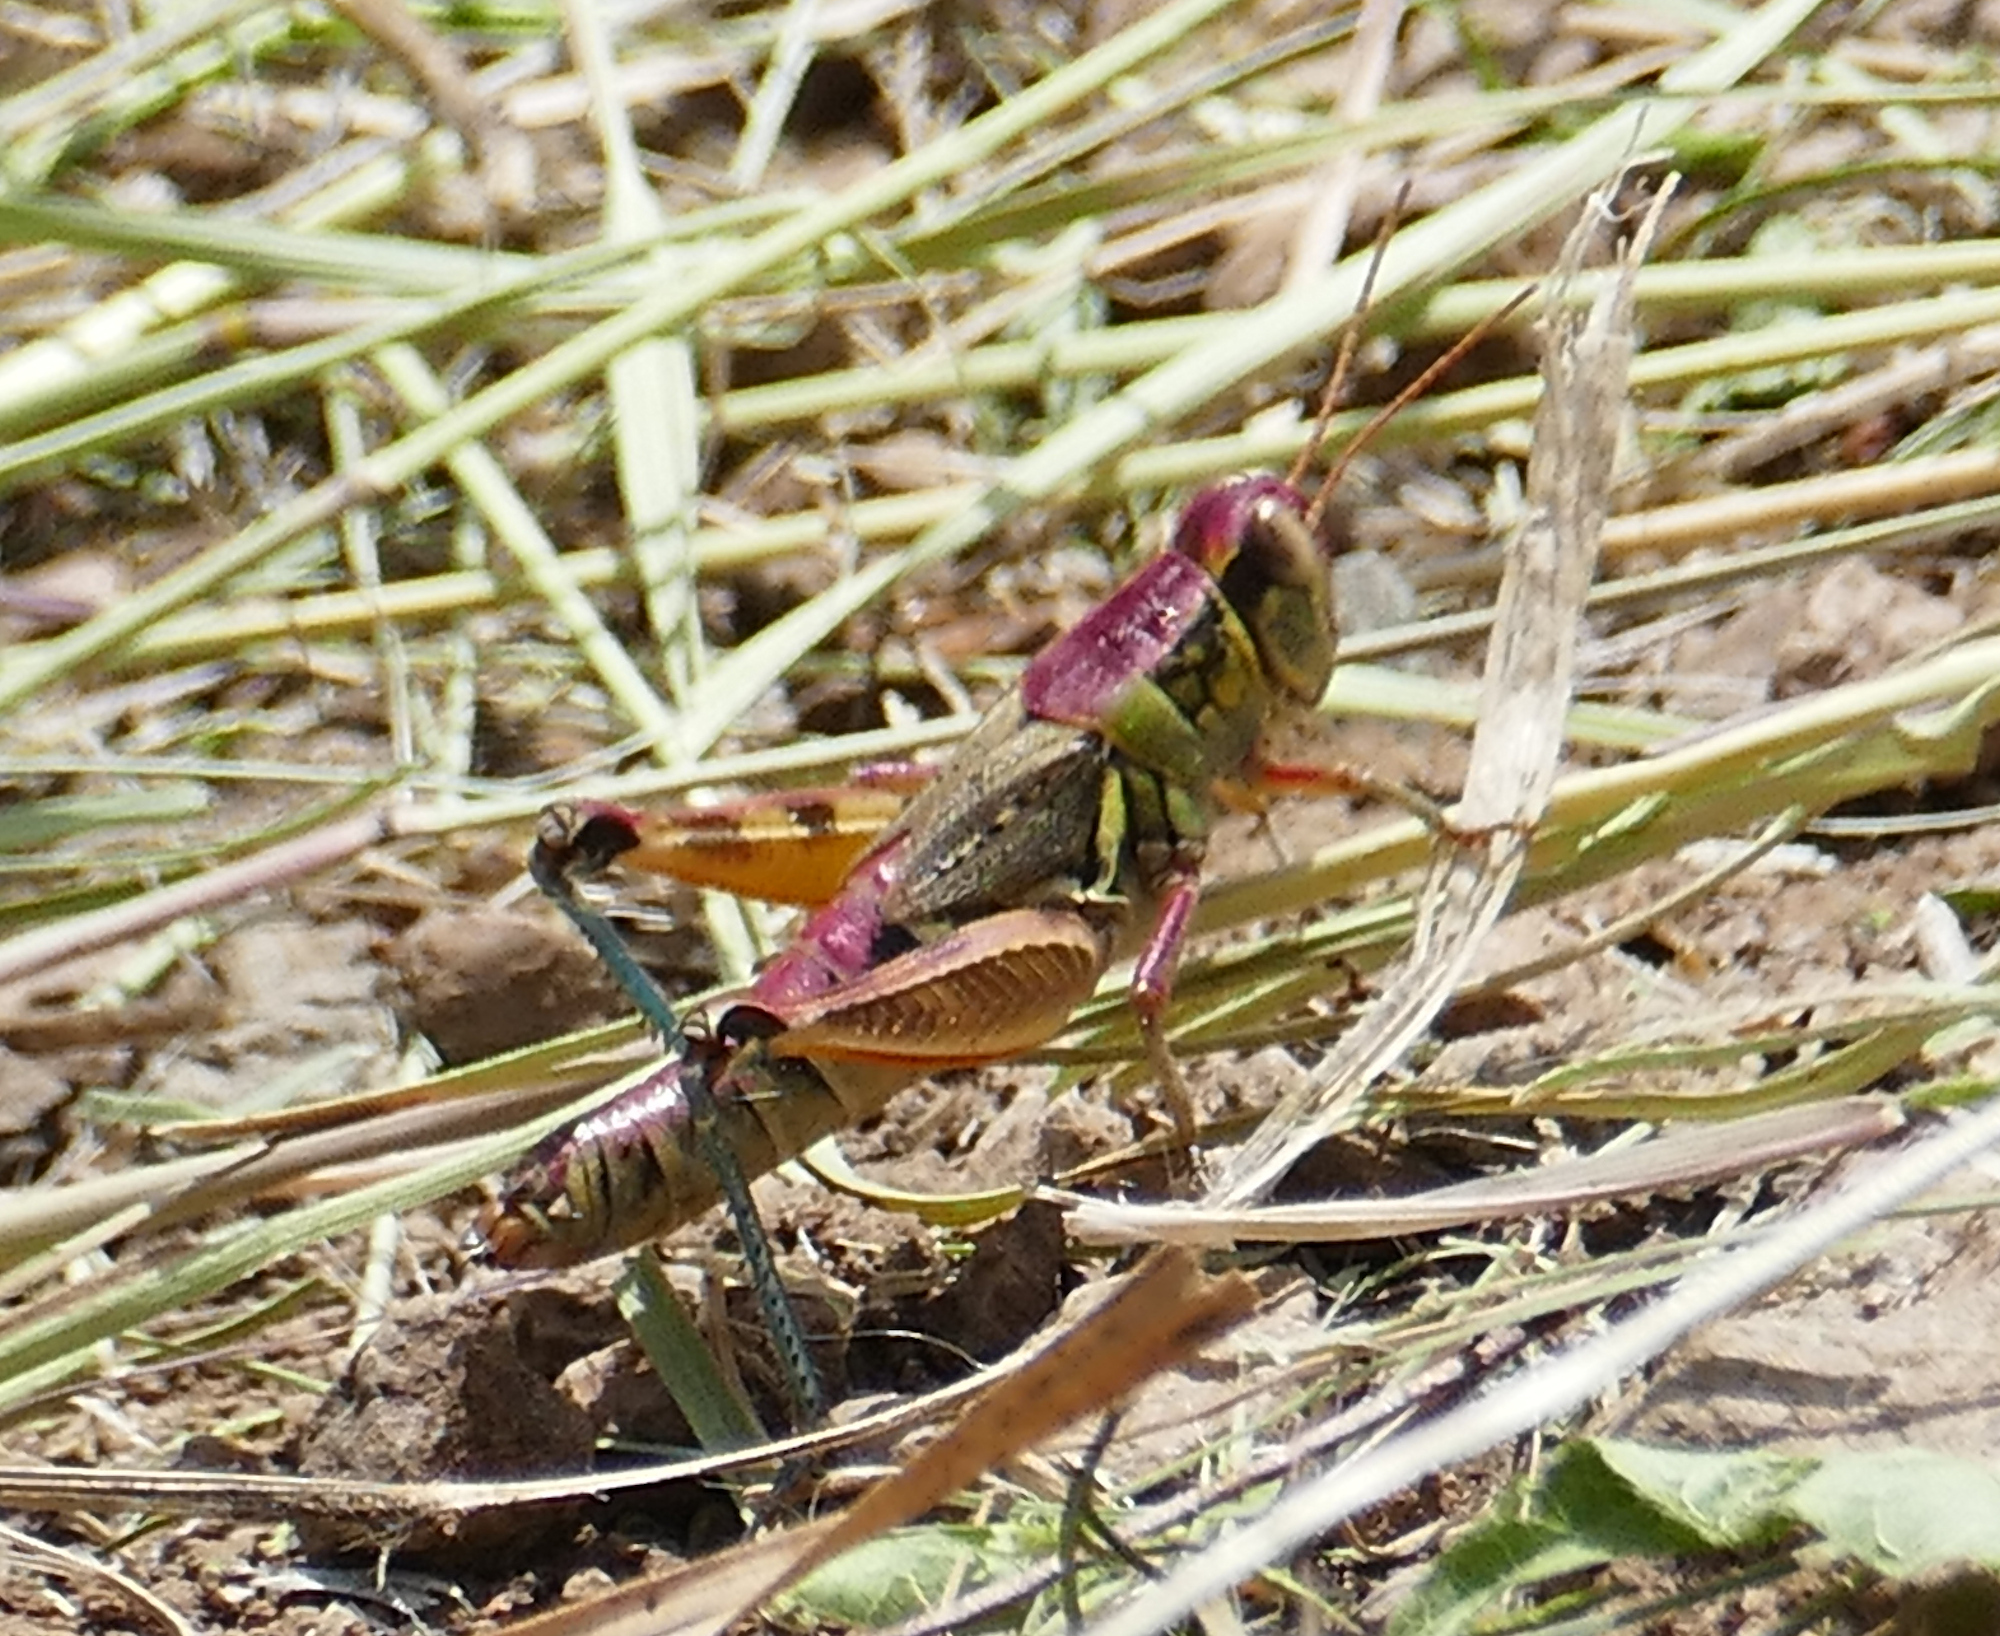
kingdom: Animalia
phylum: Arthropoda
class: Insecta
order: Orthoptera
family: Acrididae
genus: Melanoplus
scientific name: Melanoplus lakinus
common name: Lakin grasshopper
